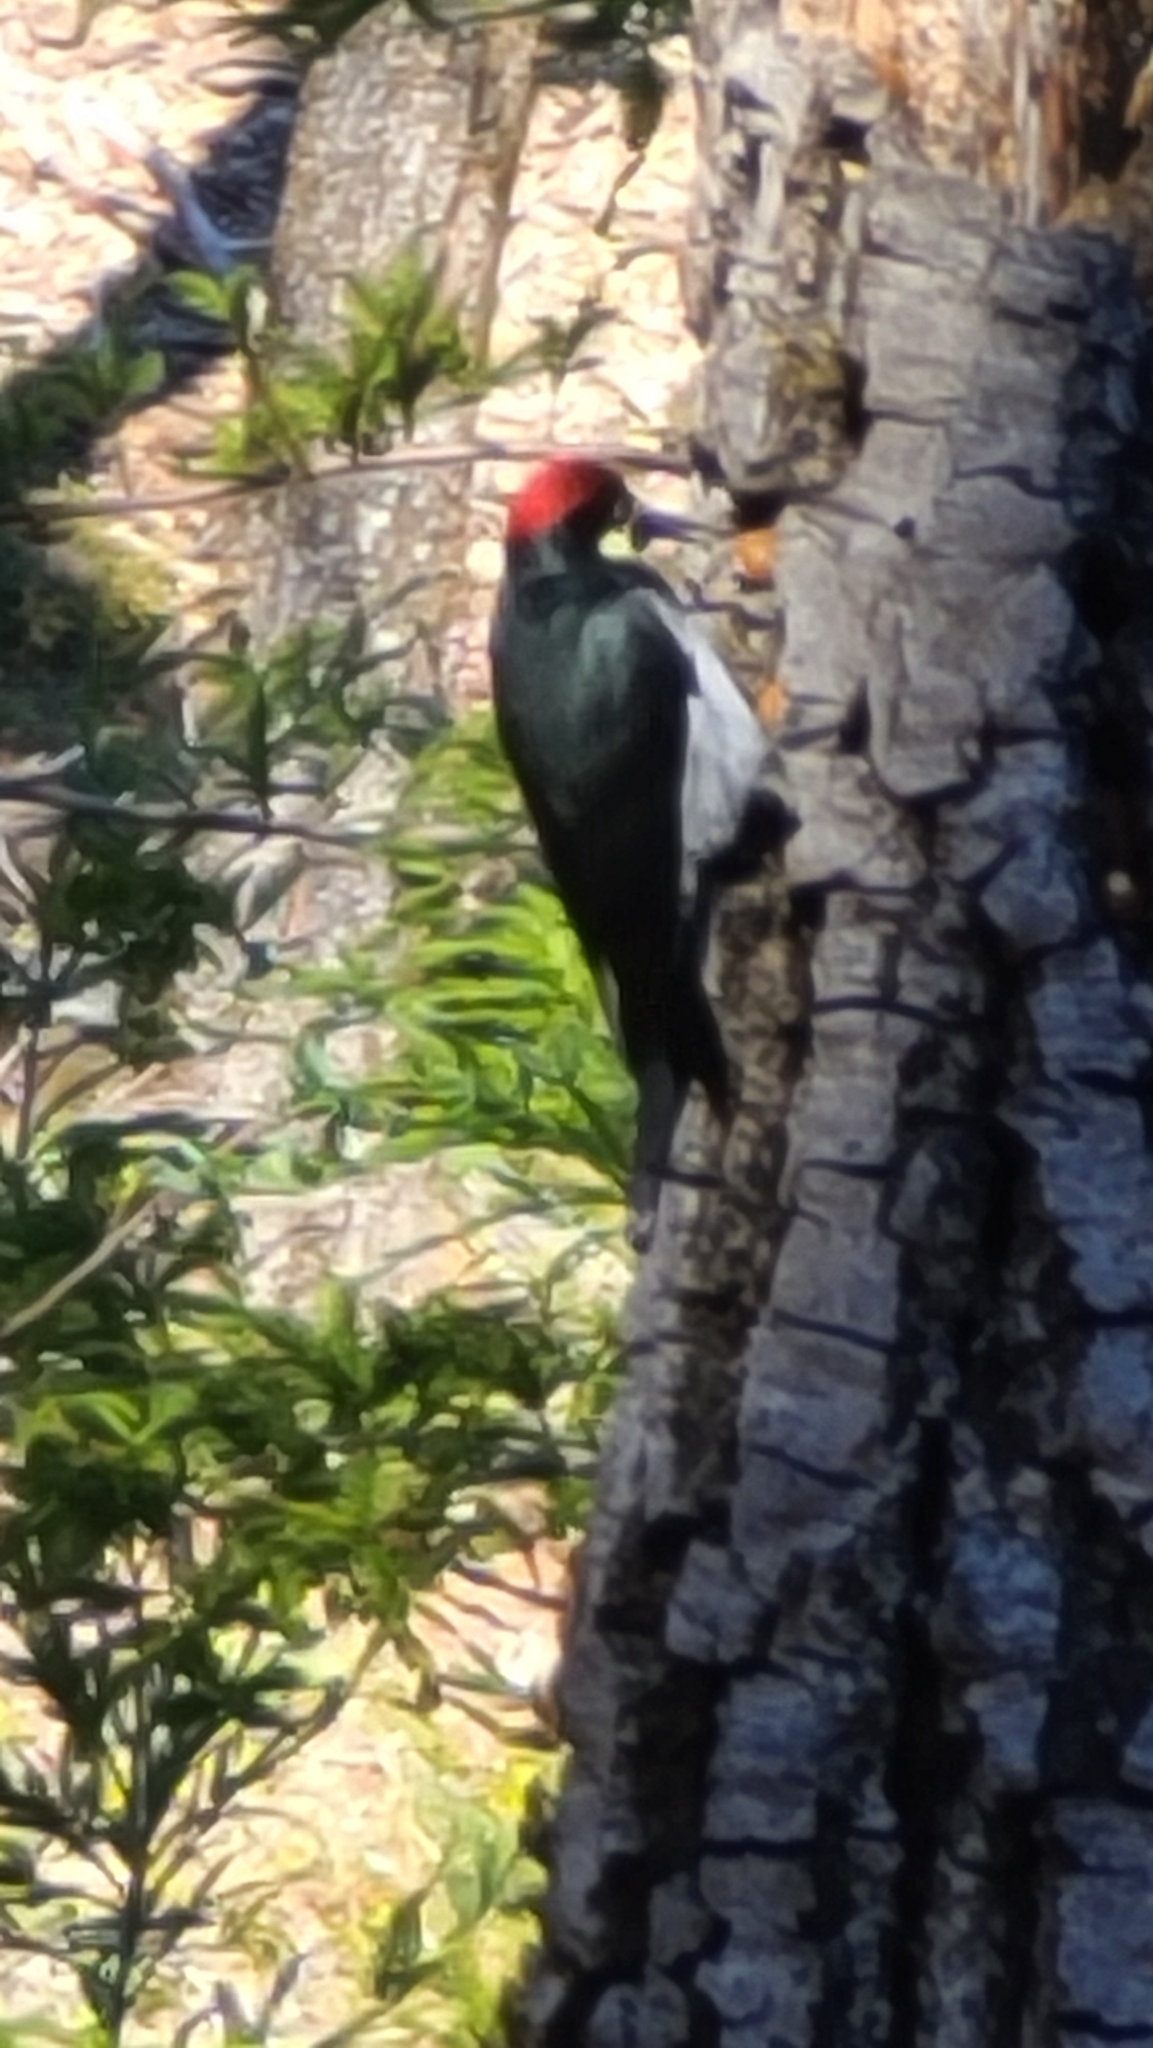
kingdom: Animalia
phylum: Chordata
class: Aves
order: Piciformes
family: Picidae
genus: Melanerpes
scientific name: Melanerpes formicivorus
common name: Acorn woodpecker
